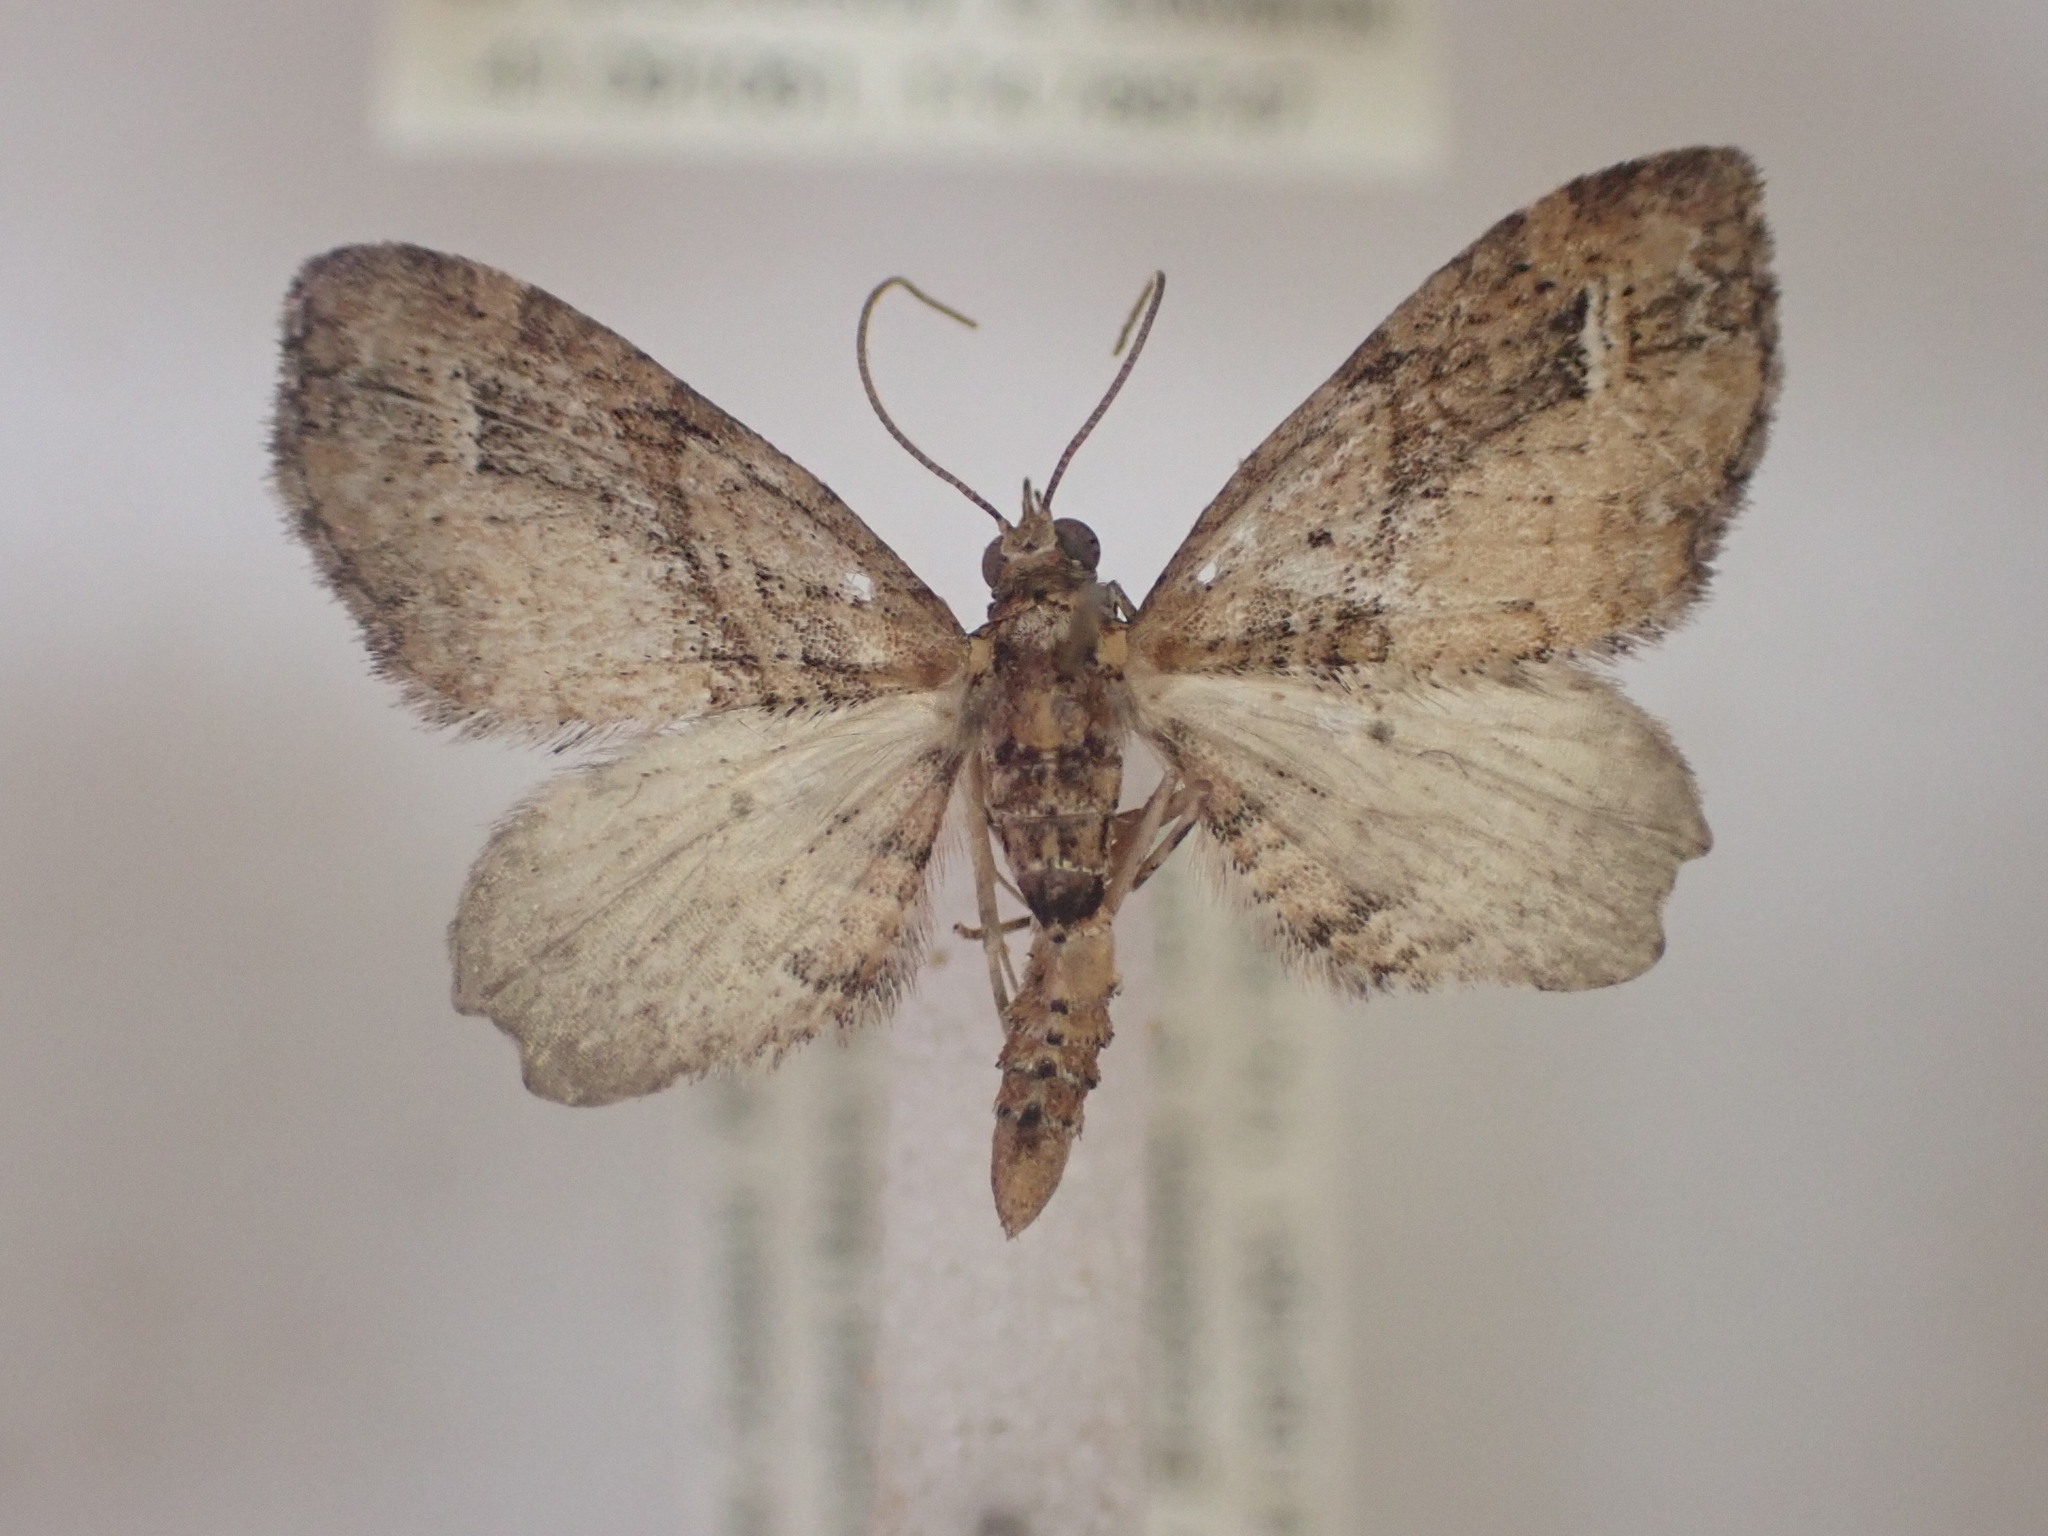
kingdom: Animalia
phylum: Arthropoda
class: Insecta
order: Lepidoptera
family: Geometridae
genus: Idaea
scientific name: Idaea mutanda
